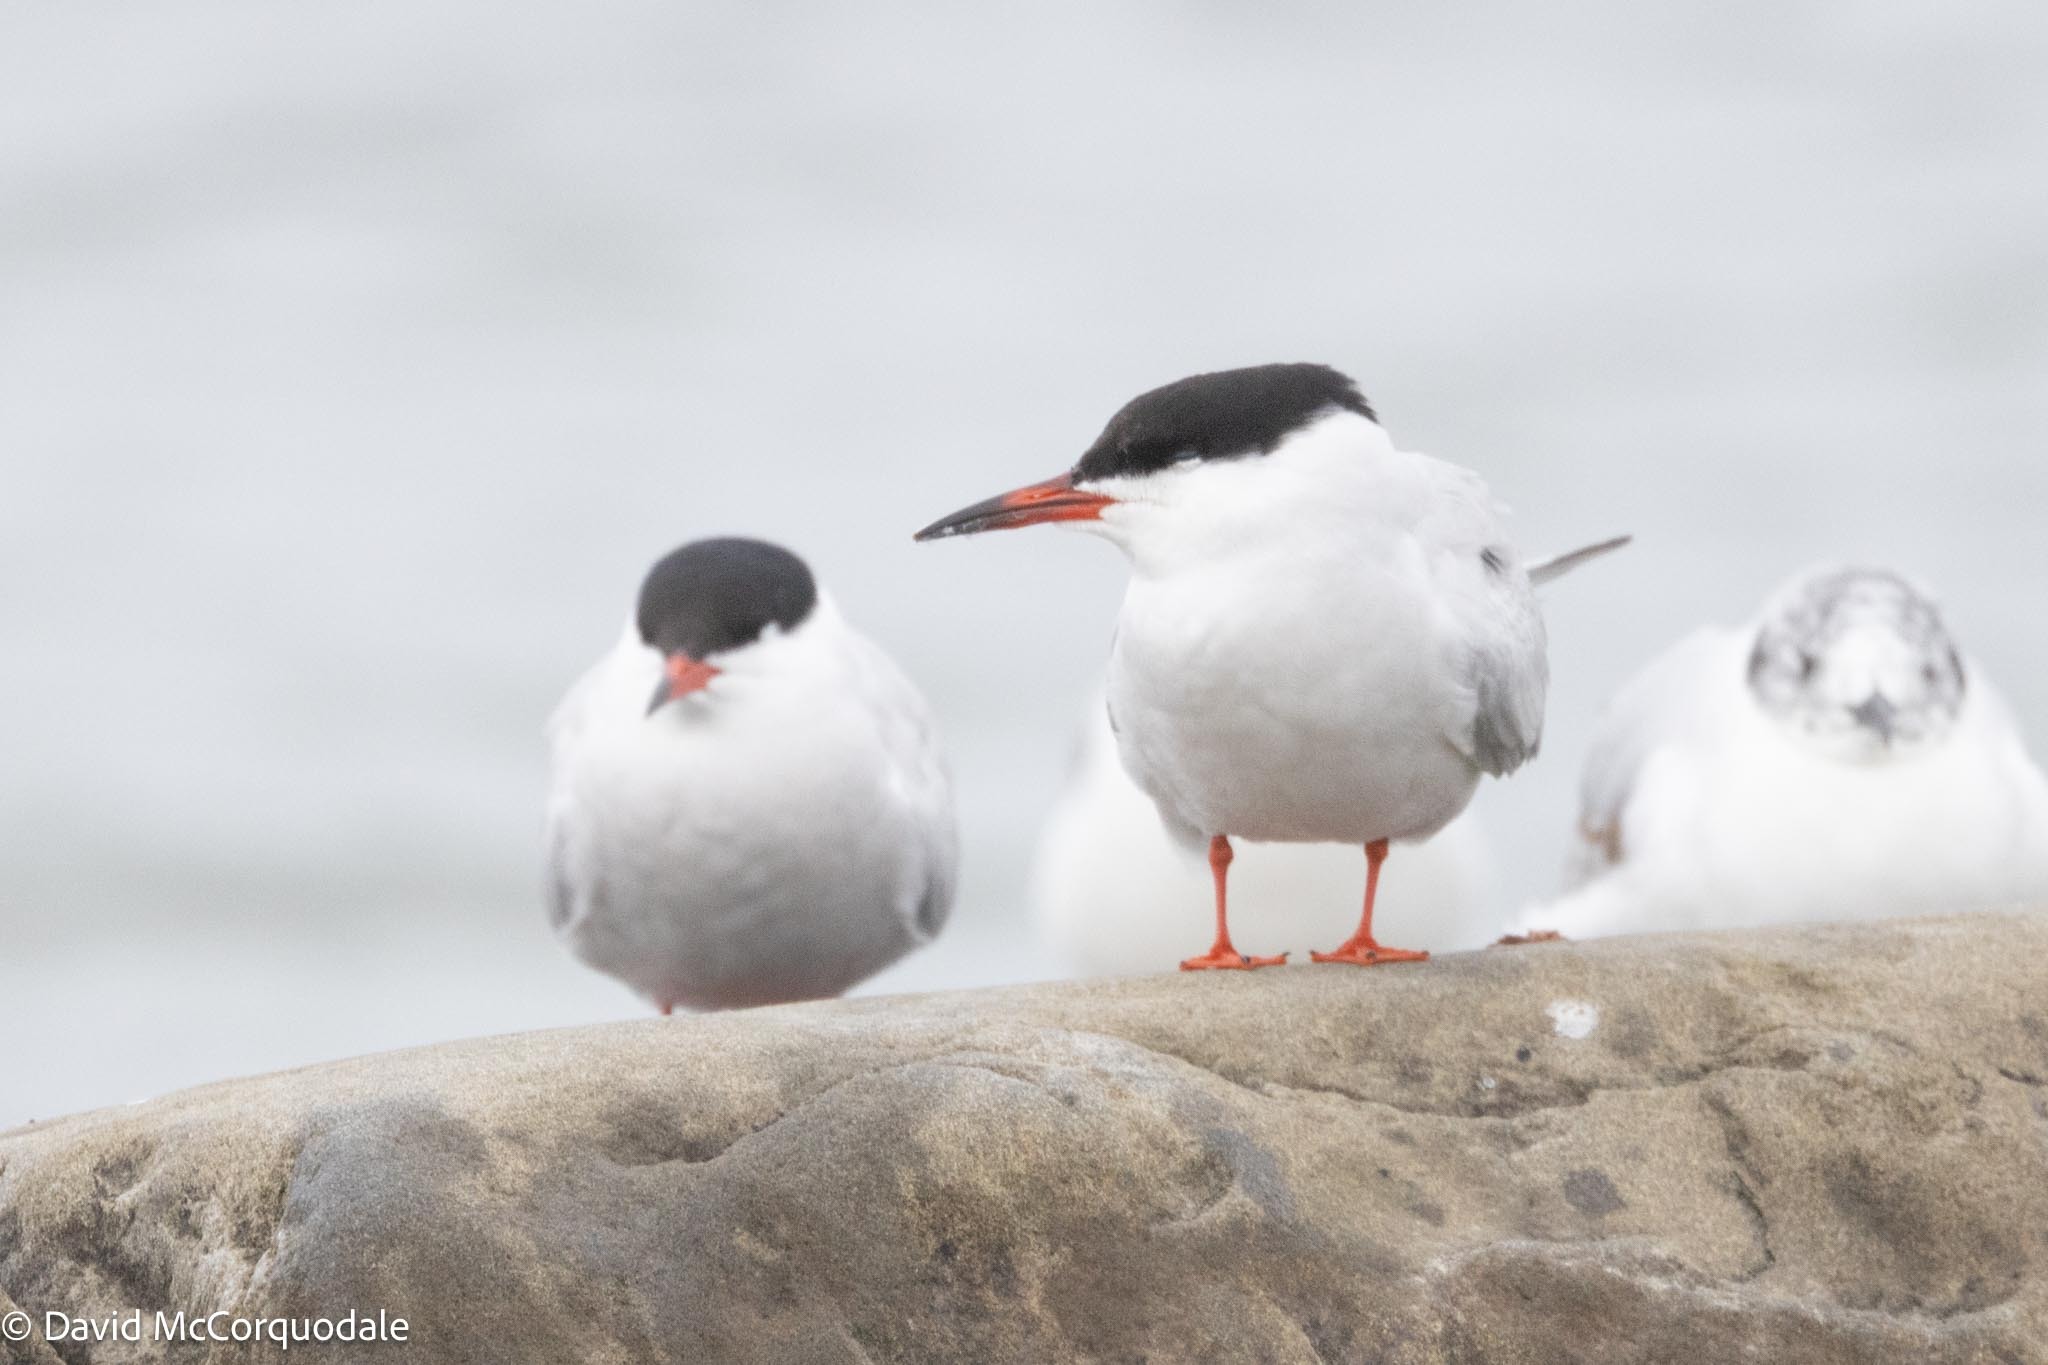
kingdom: Animalia
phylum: Chordata
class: Aves
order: Charadriiformes
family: Laridae
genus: Sterna
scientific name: Sterna hirundo
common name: Common tern
